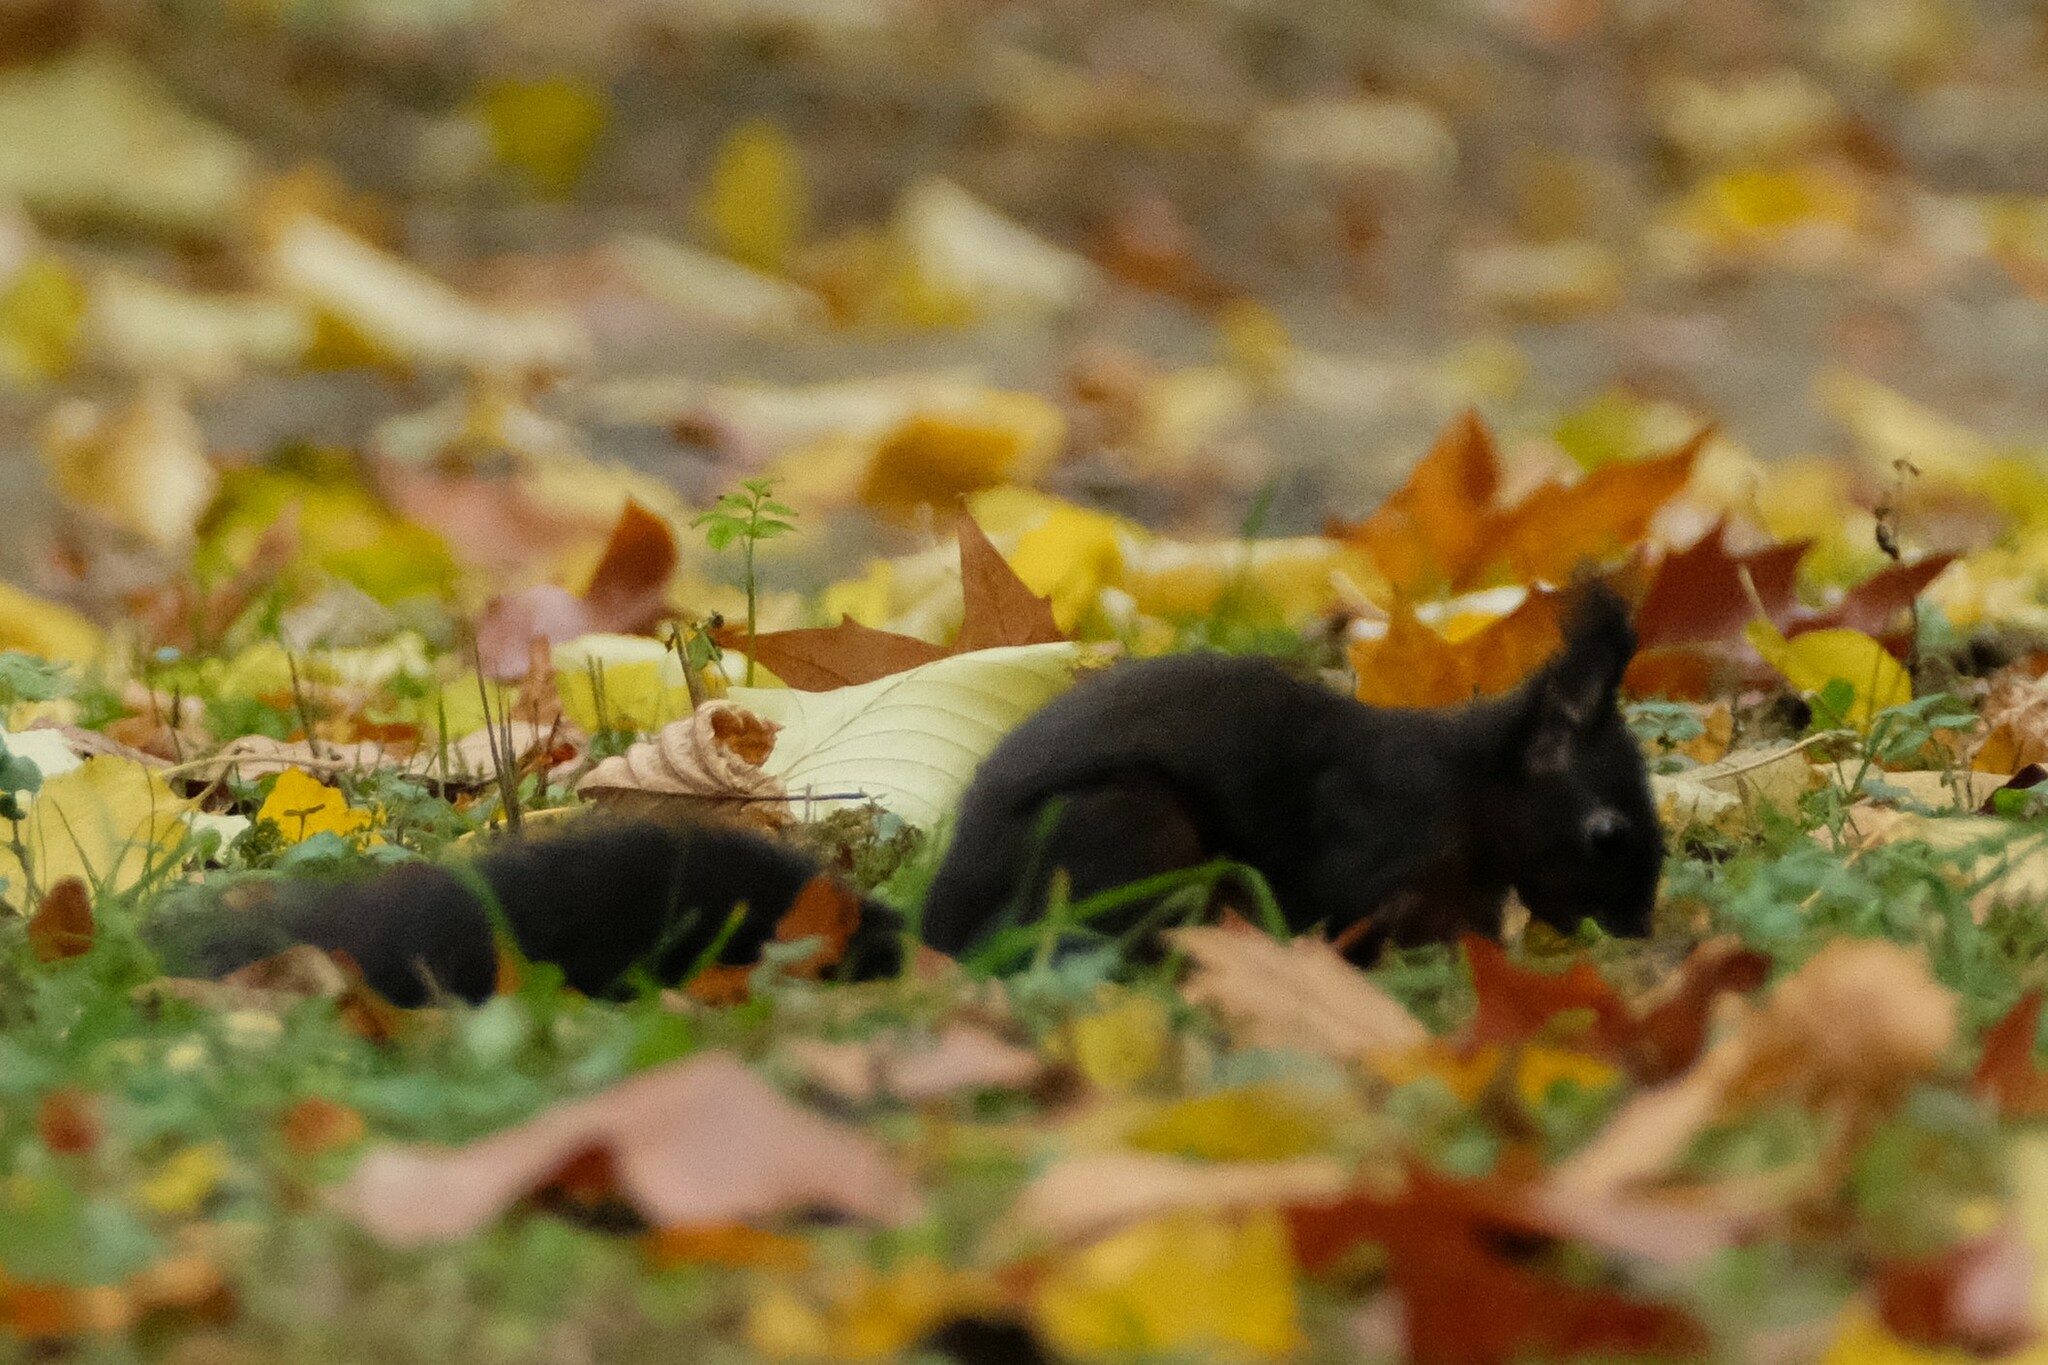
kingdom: Animalia
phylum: Chordata
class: Mammalia
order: Rodentia
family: Sciuridae
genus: Sciurus
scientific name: Sciurus vulgaris
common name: Eurasian red squirrel
